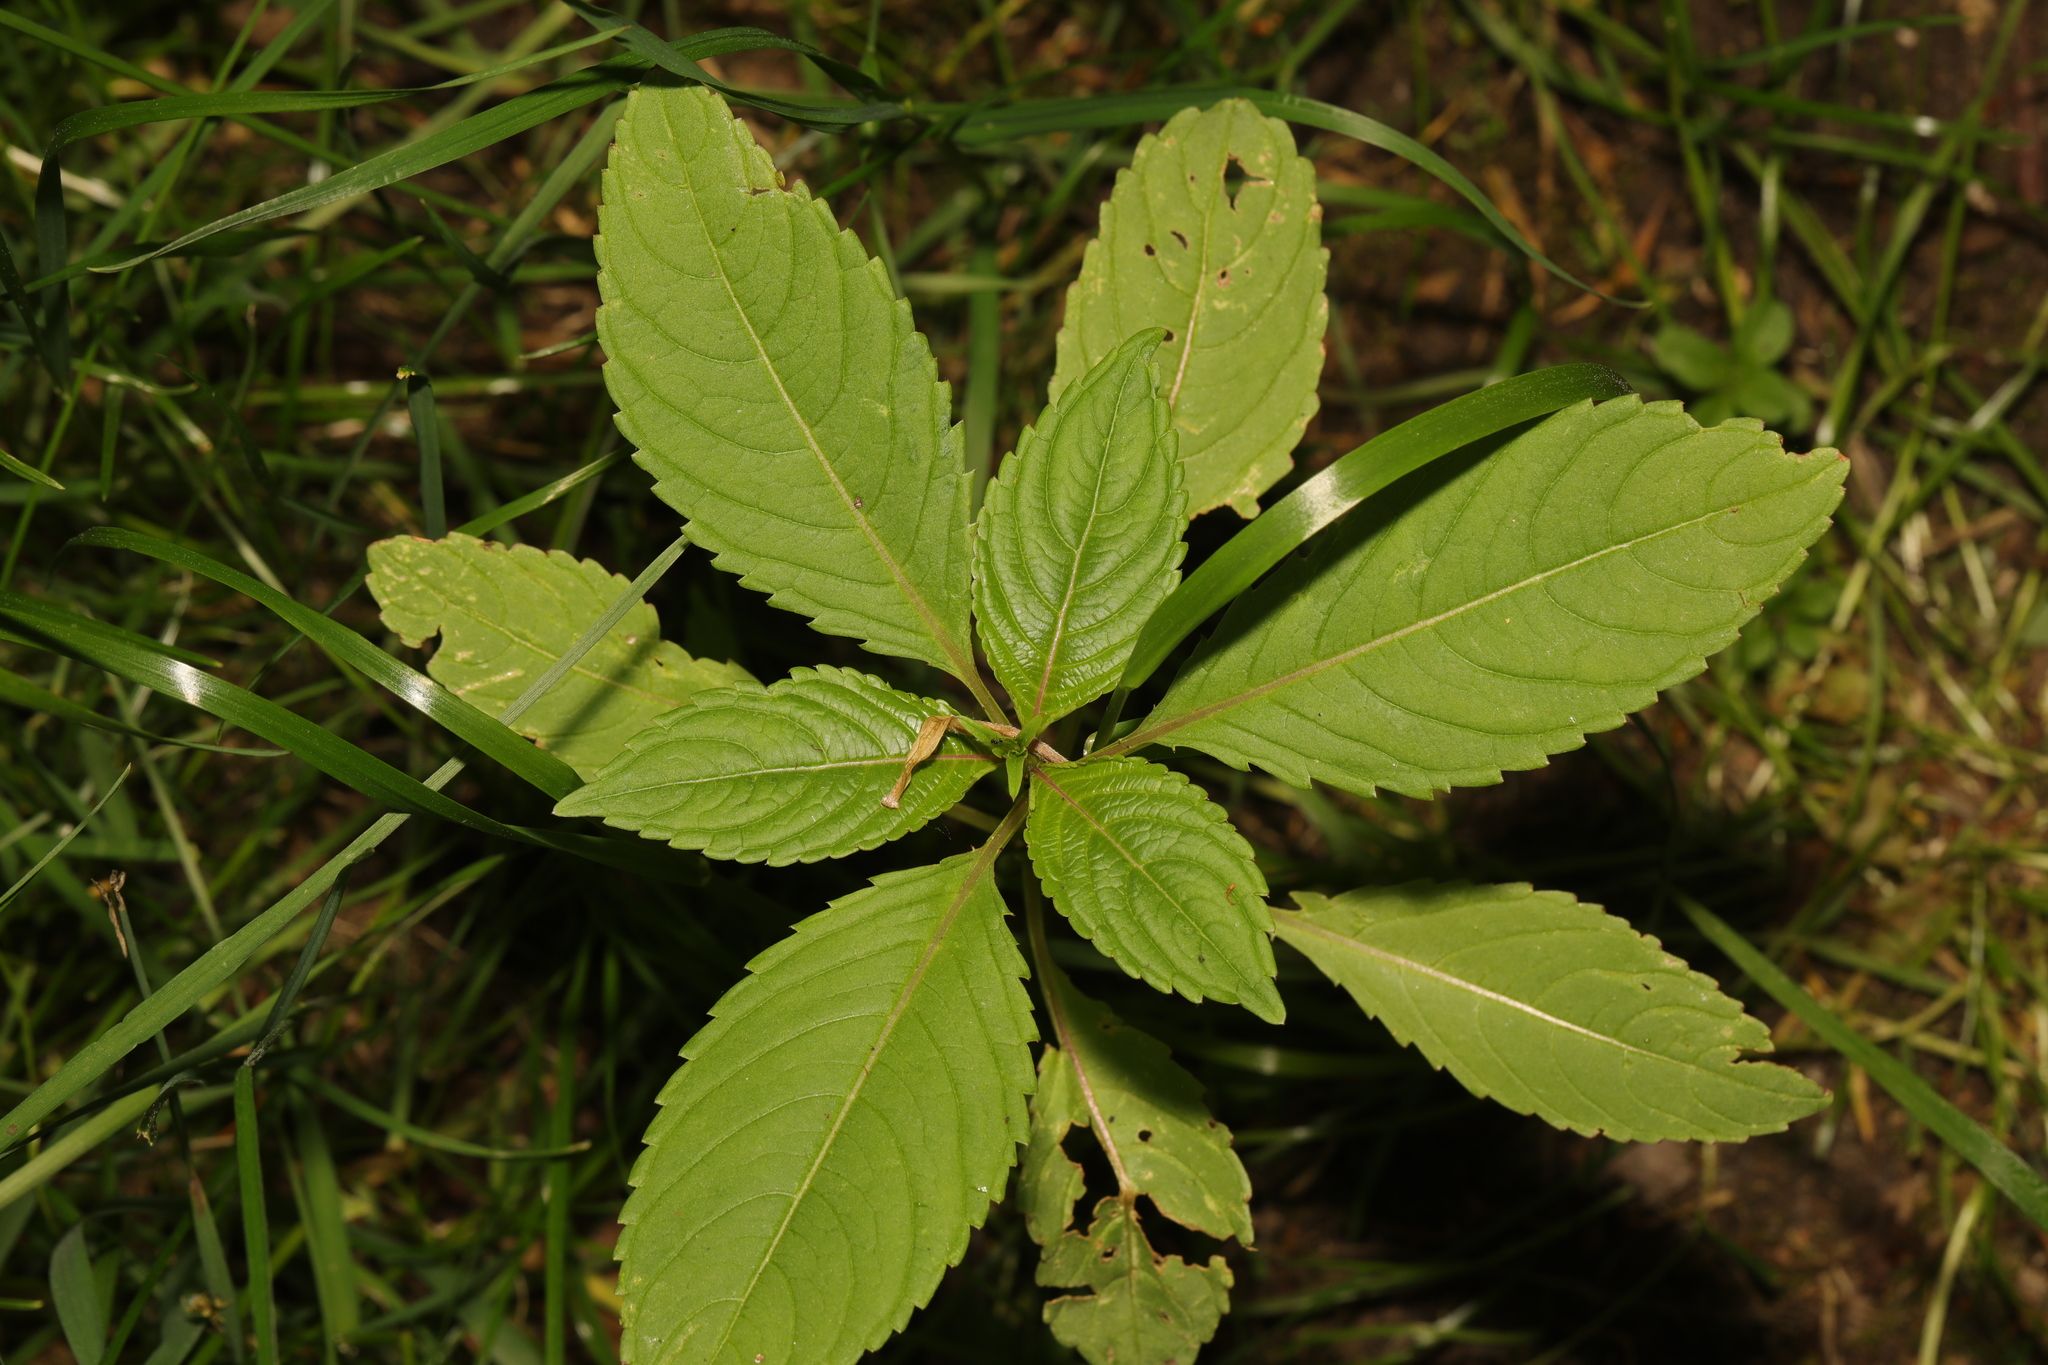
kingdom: Plantae
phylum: Tracheophyta
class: Magnoliopsida
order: Ericales
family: Balsaminaceae
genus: Impatiens
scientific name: Impatiens glandulifera
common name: Himalayan balsam
